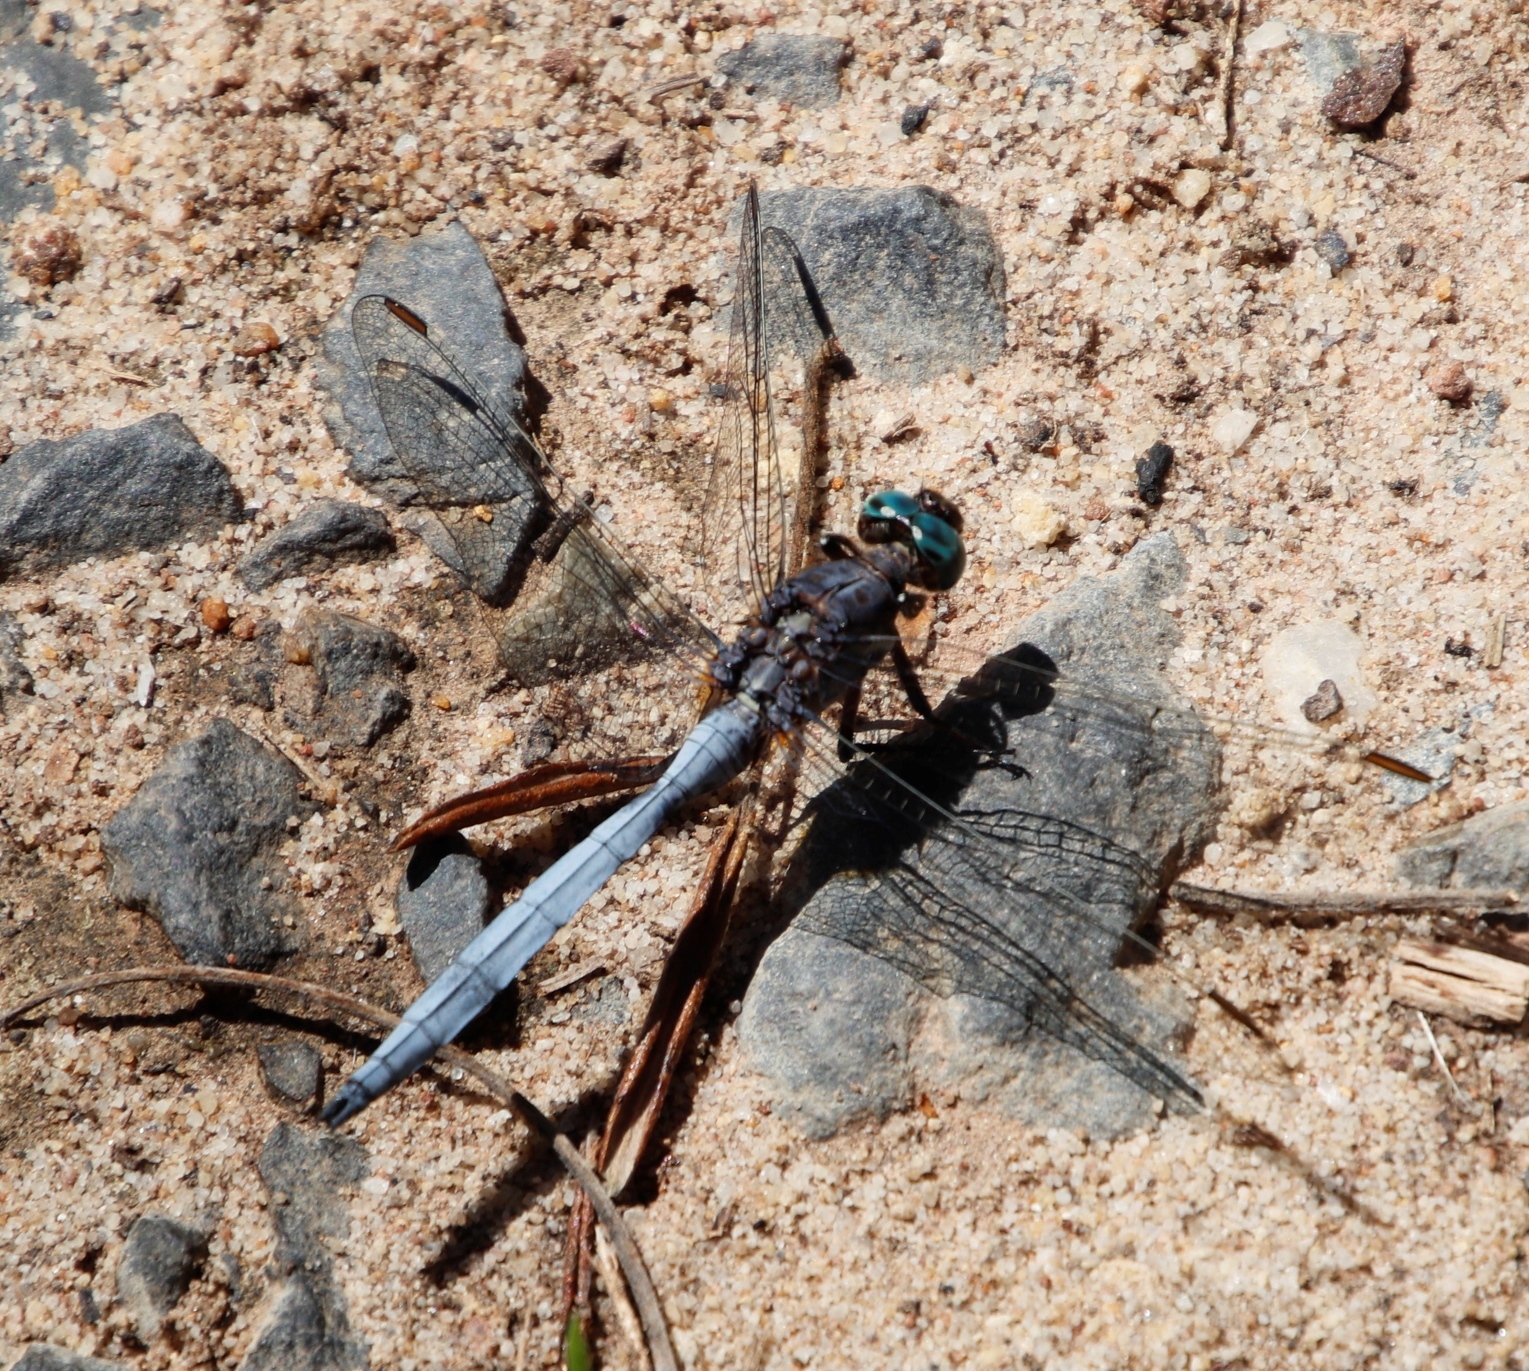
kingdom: Animalia
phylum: Arthropoda
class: Insecta
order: Odonata
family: Libellulidae
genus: Orthetrum
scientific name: Orthetrum julia
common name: Julia skimmer
